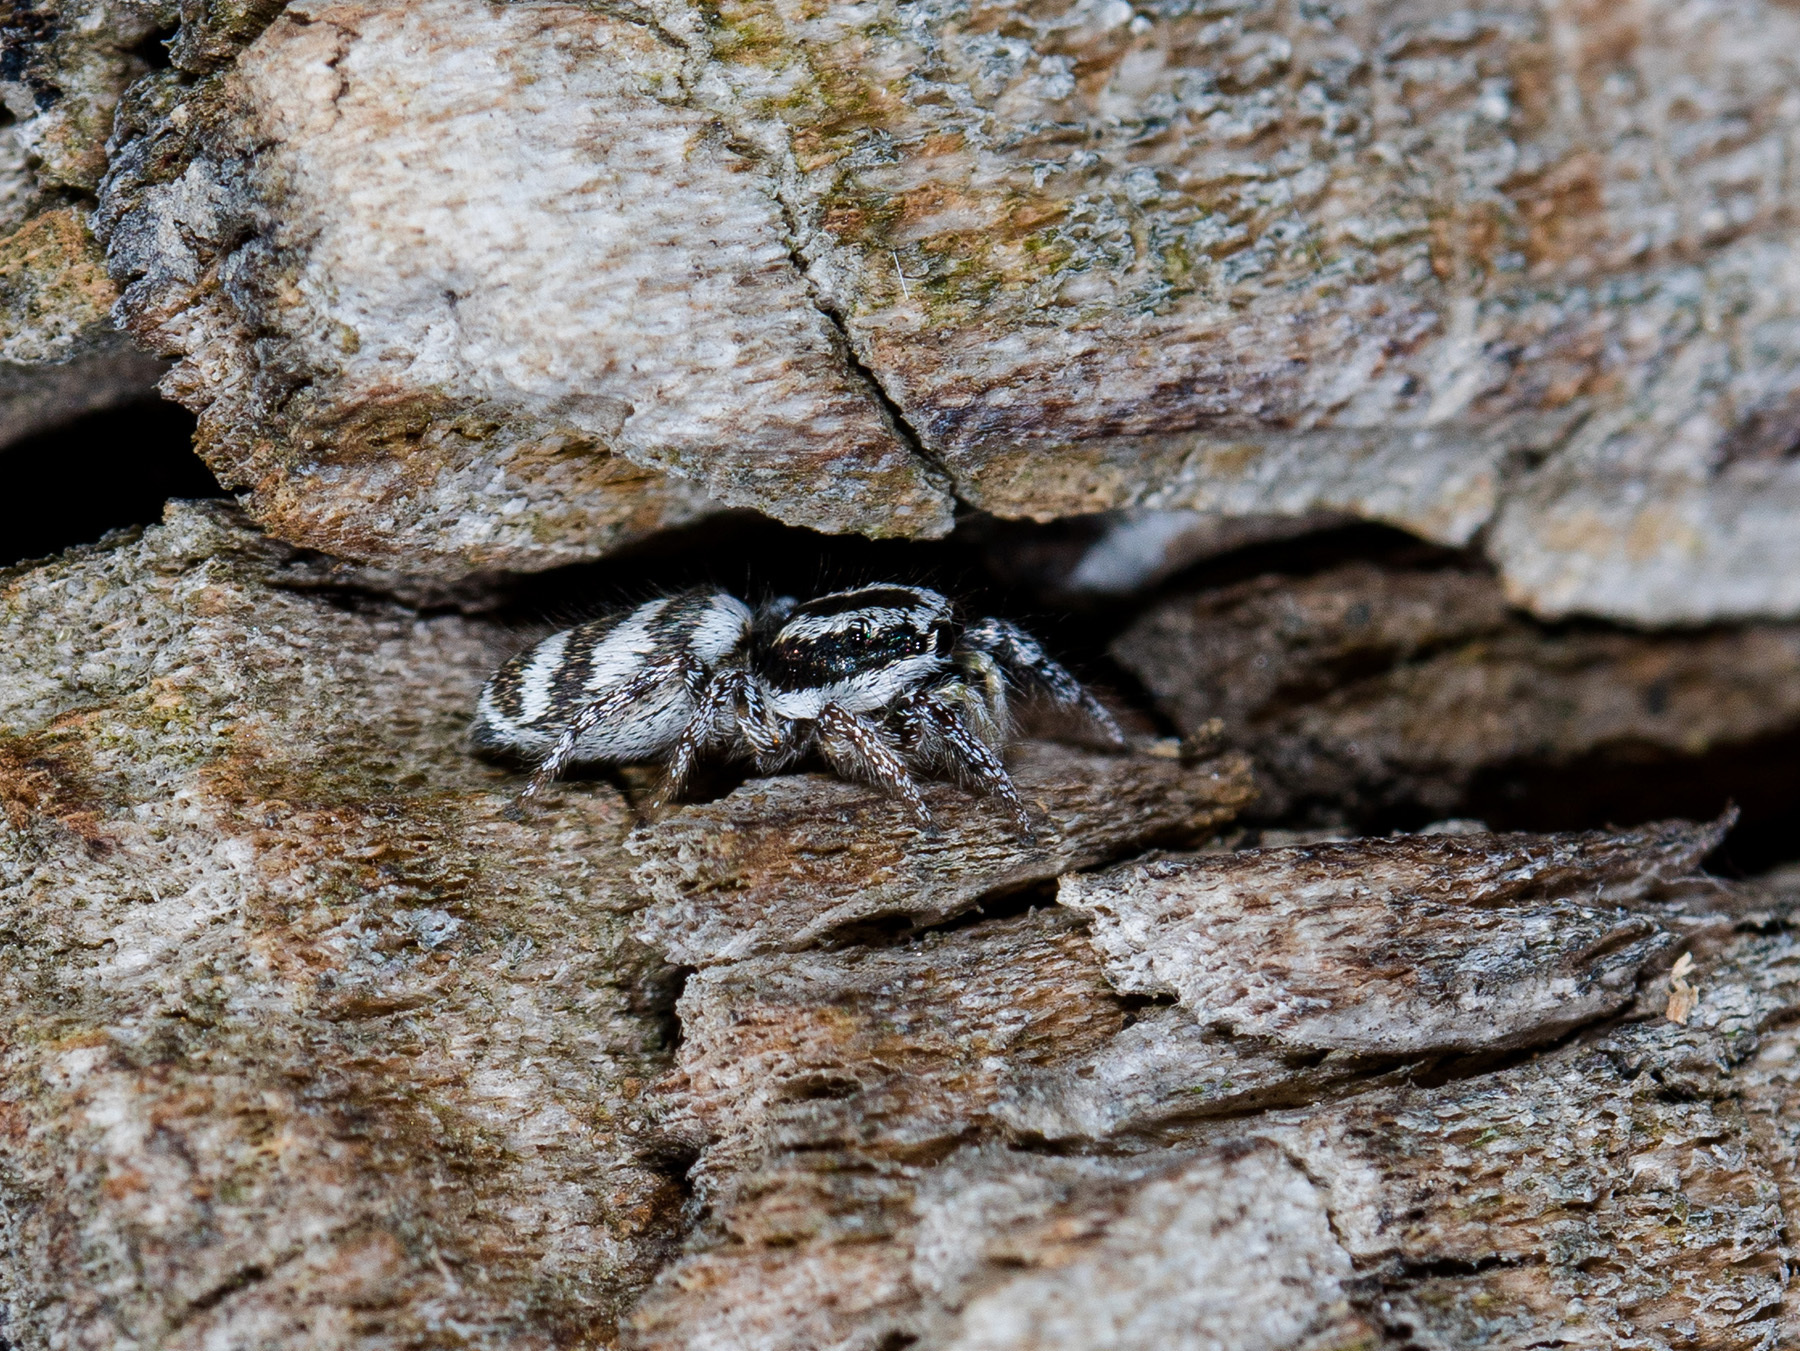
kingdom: Animalia
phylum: Arthropoda
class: Arachnida
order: Araneae
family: Salticidae
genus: Salticus
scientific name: Salticus tricinctus
